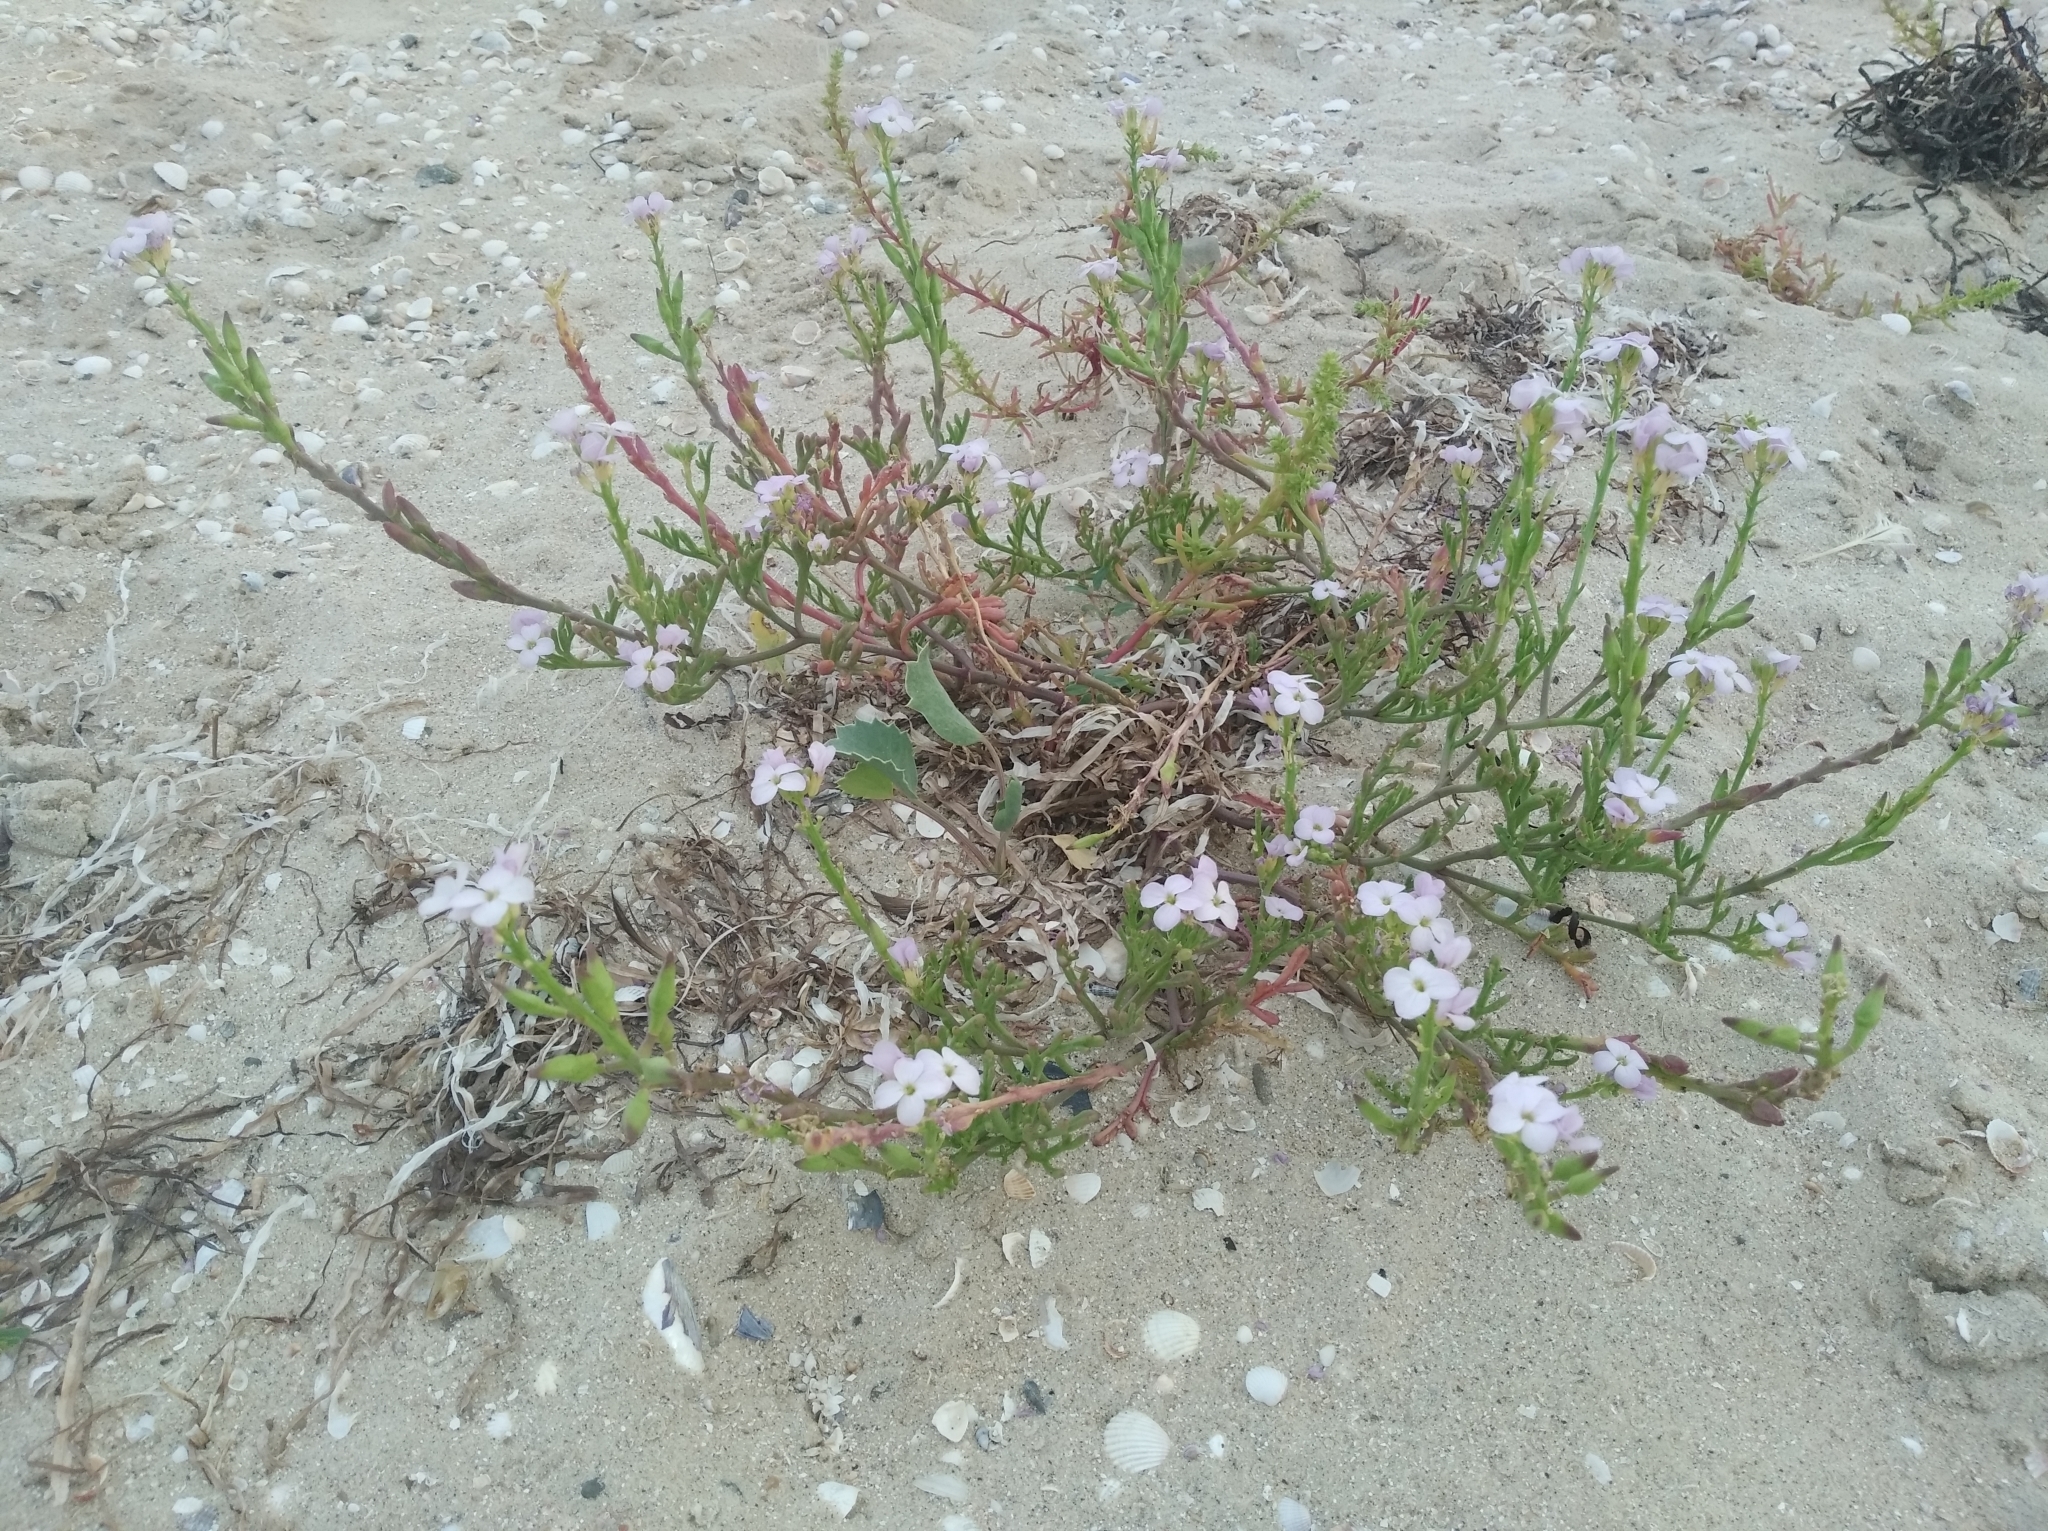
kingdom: Plantae
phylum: Tracheophyta
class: Magnoliopsida
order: Brassicales
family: Brassicaceae
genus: Cakile
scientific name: Cakile maritima
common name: Sea rocket
